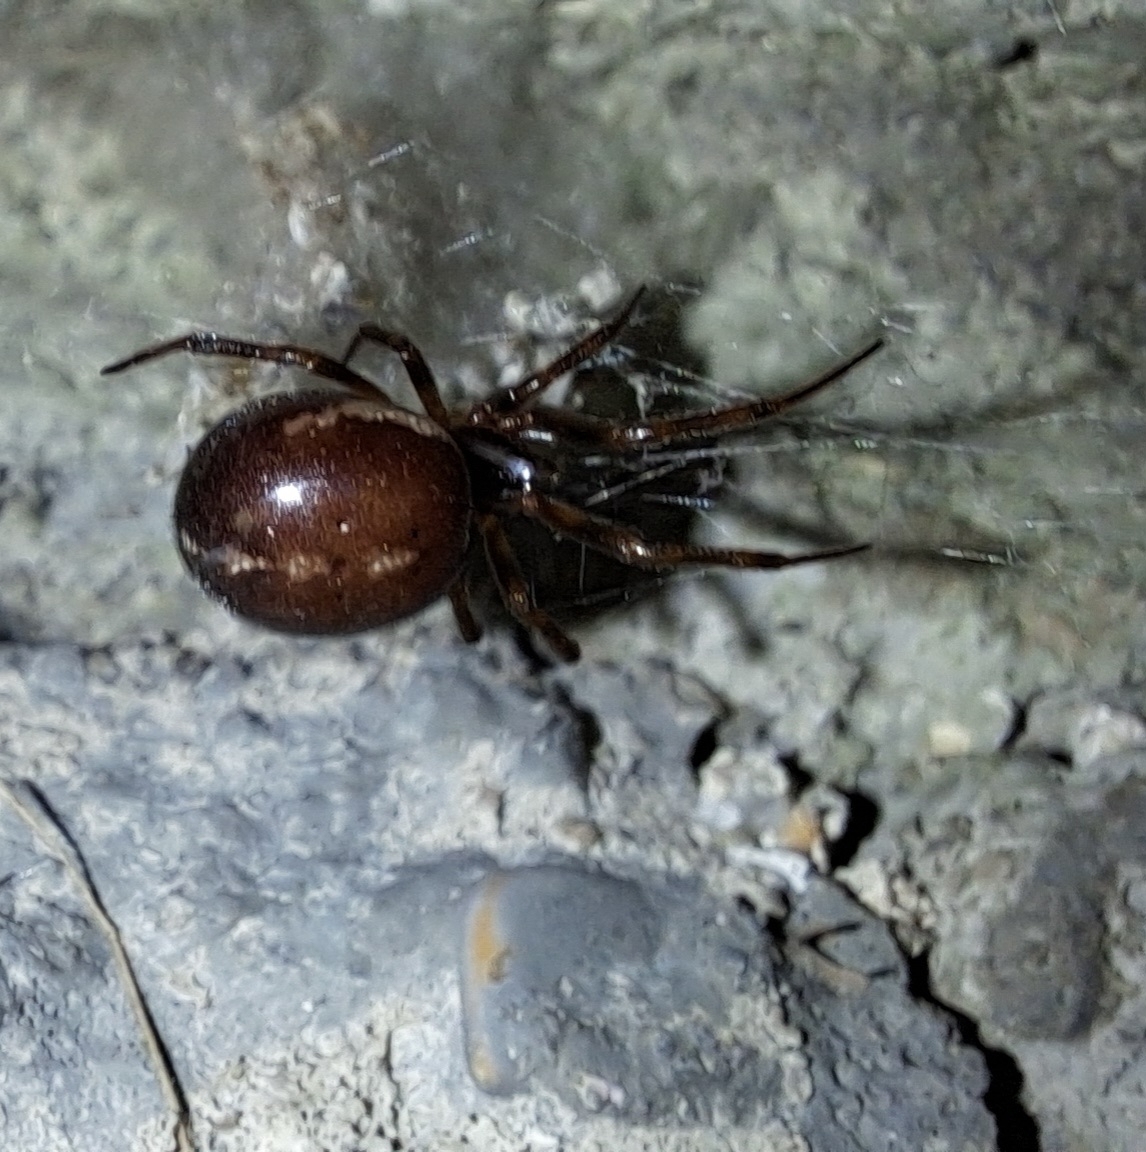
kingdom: Animalia
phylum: Arthropoda
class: Arachnida
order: Araneae
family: Theridiidae
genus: Steatoda
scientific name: Steatoda bipunctata
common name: False widow
